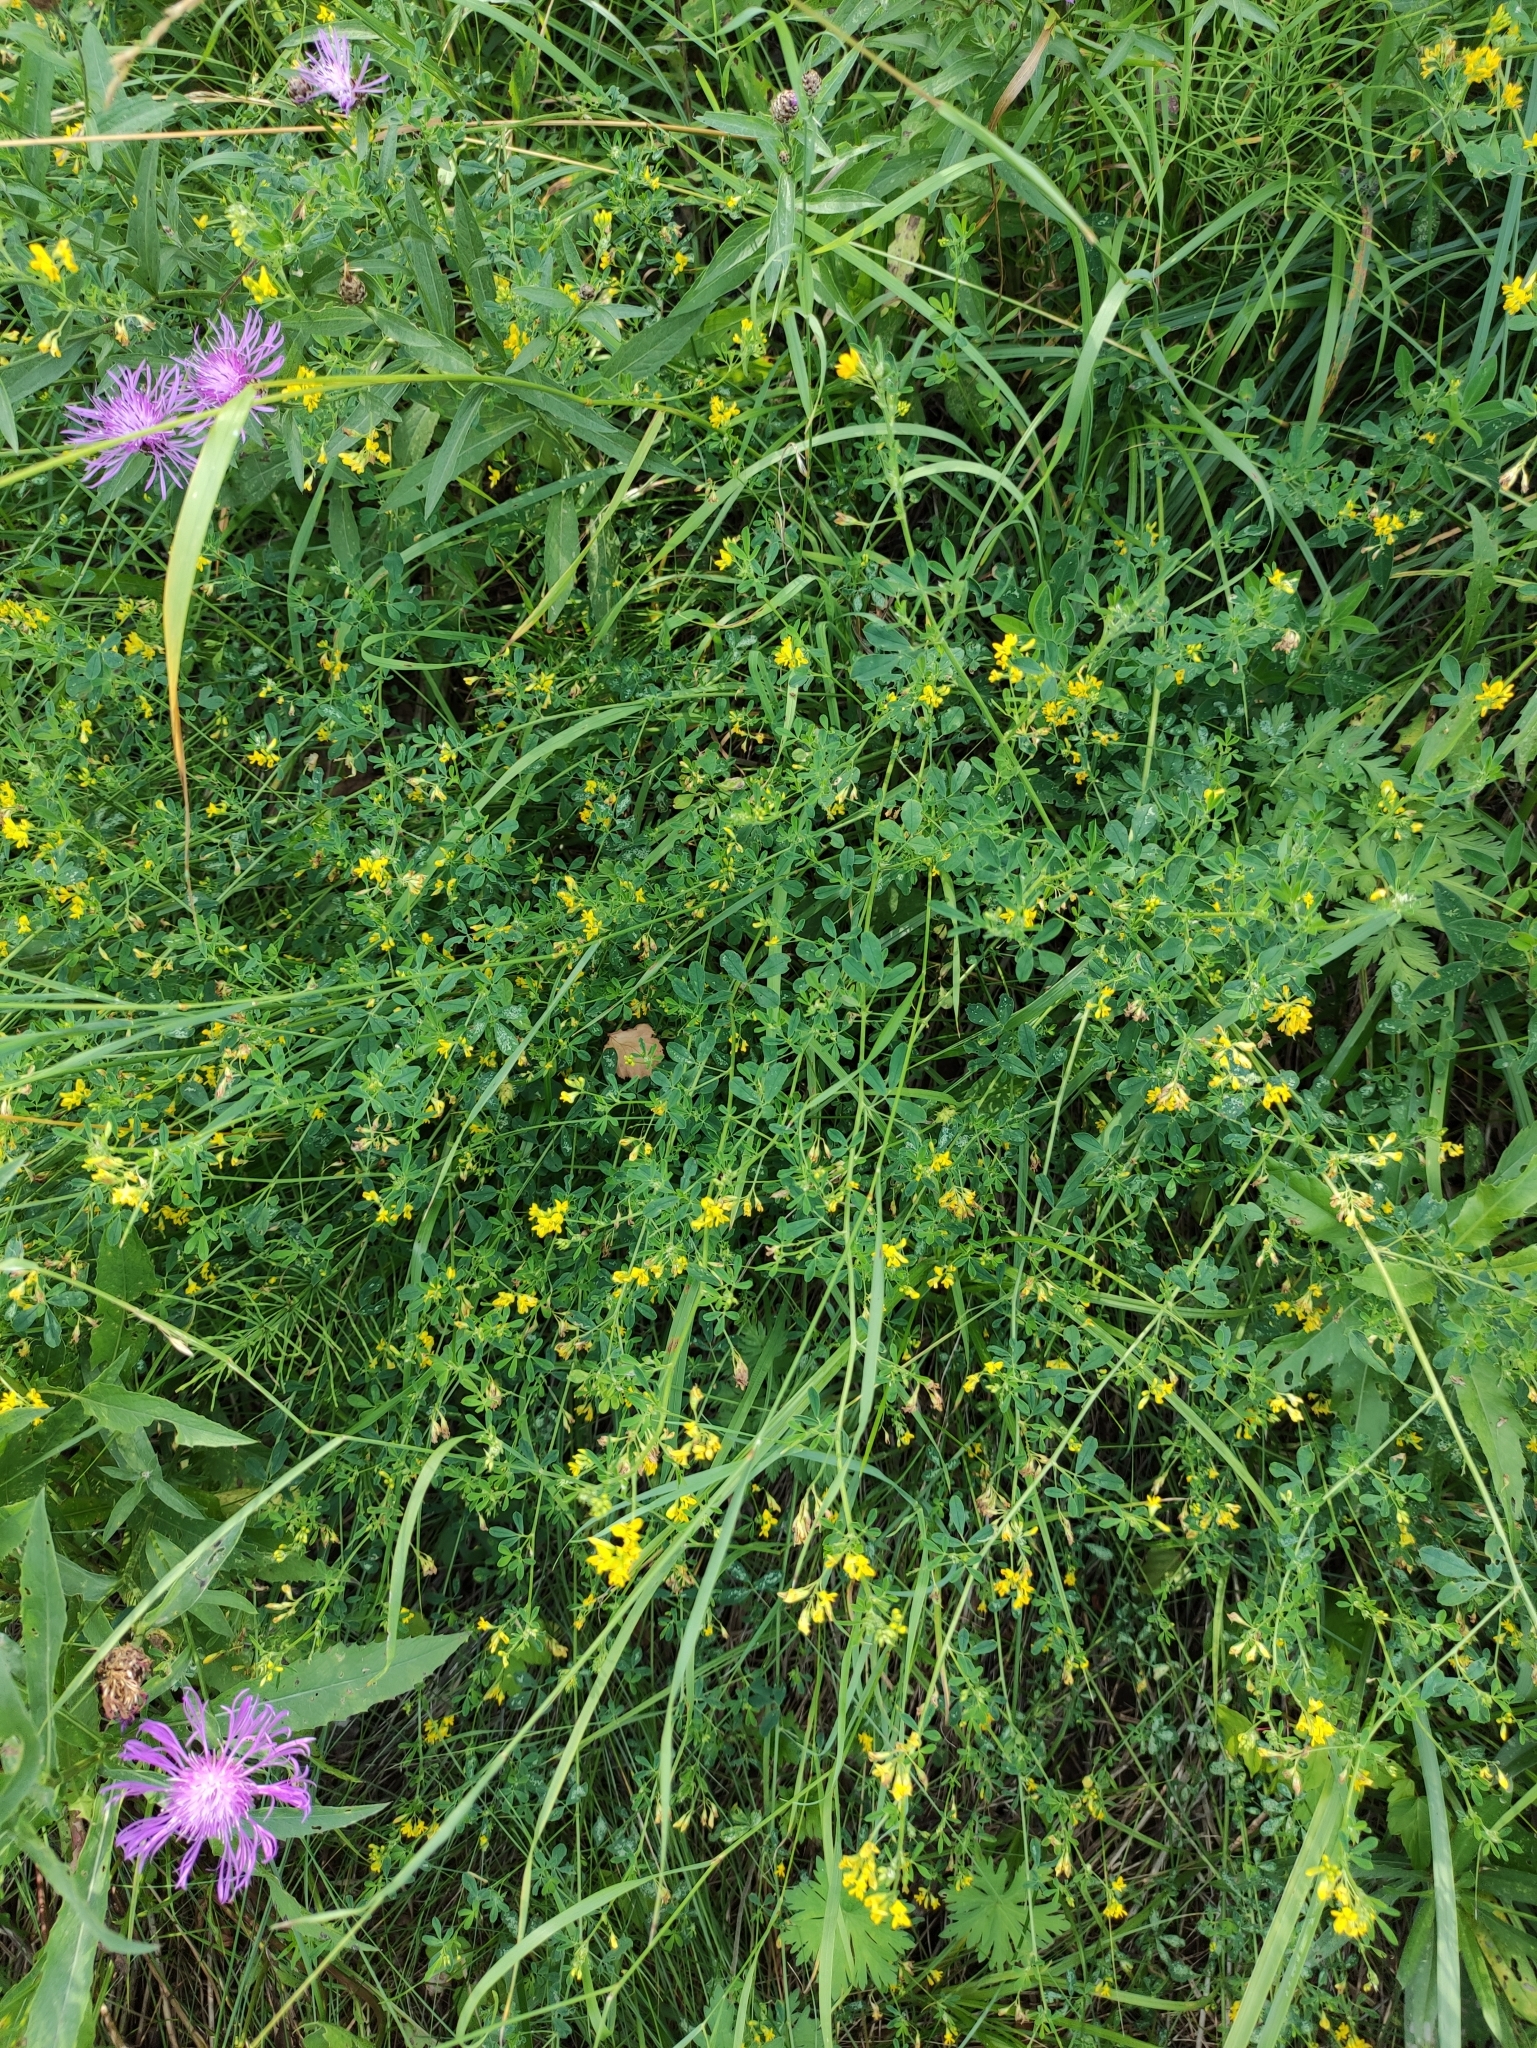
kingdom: Plantae
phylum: Tracheophyta
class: Magnoliopsida
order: Fabales
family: Fabaceae
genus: Medicago
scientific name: Medicago falcata
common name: Sickle medick
